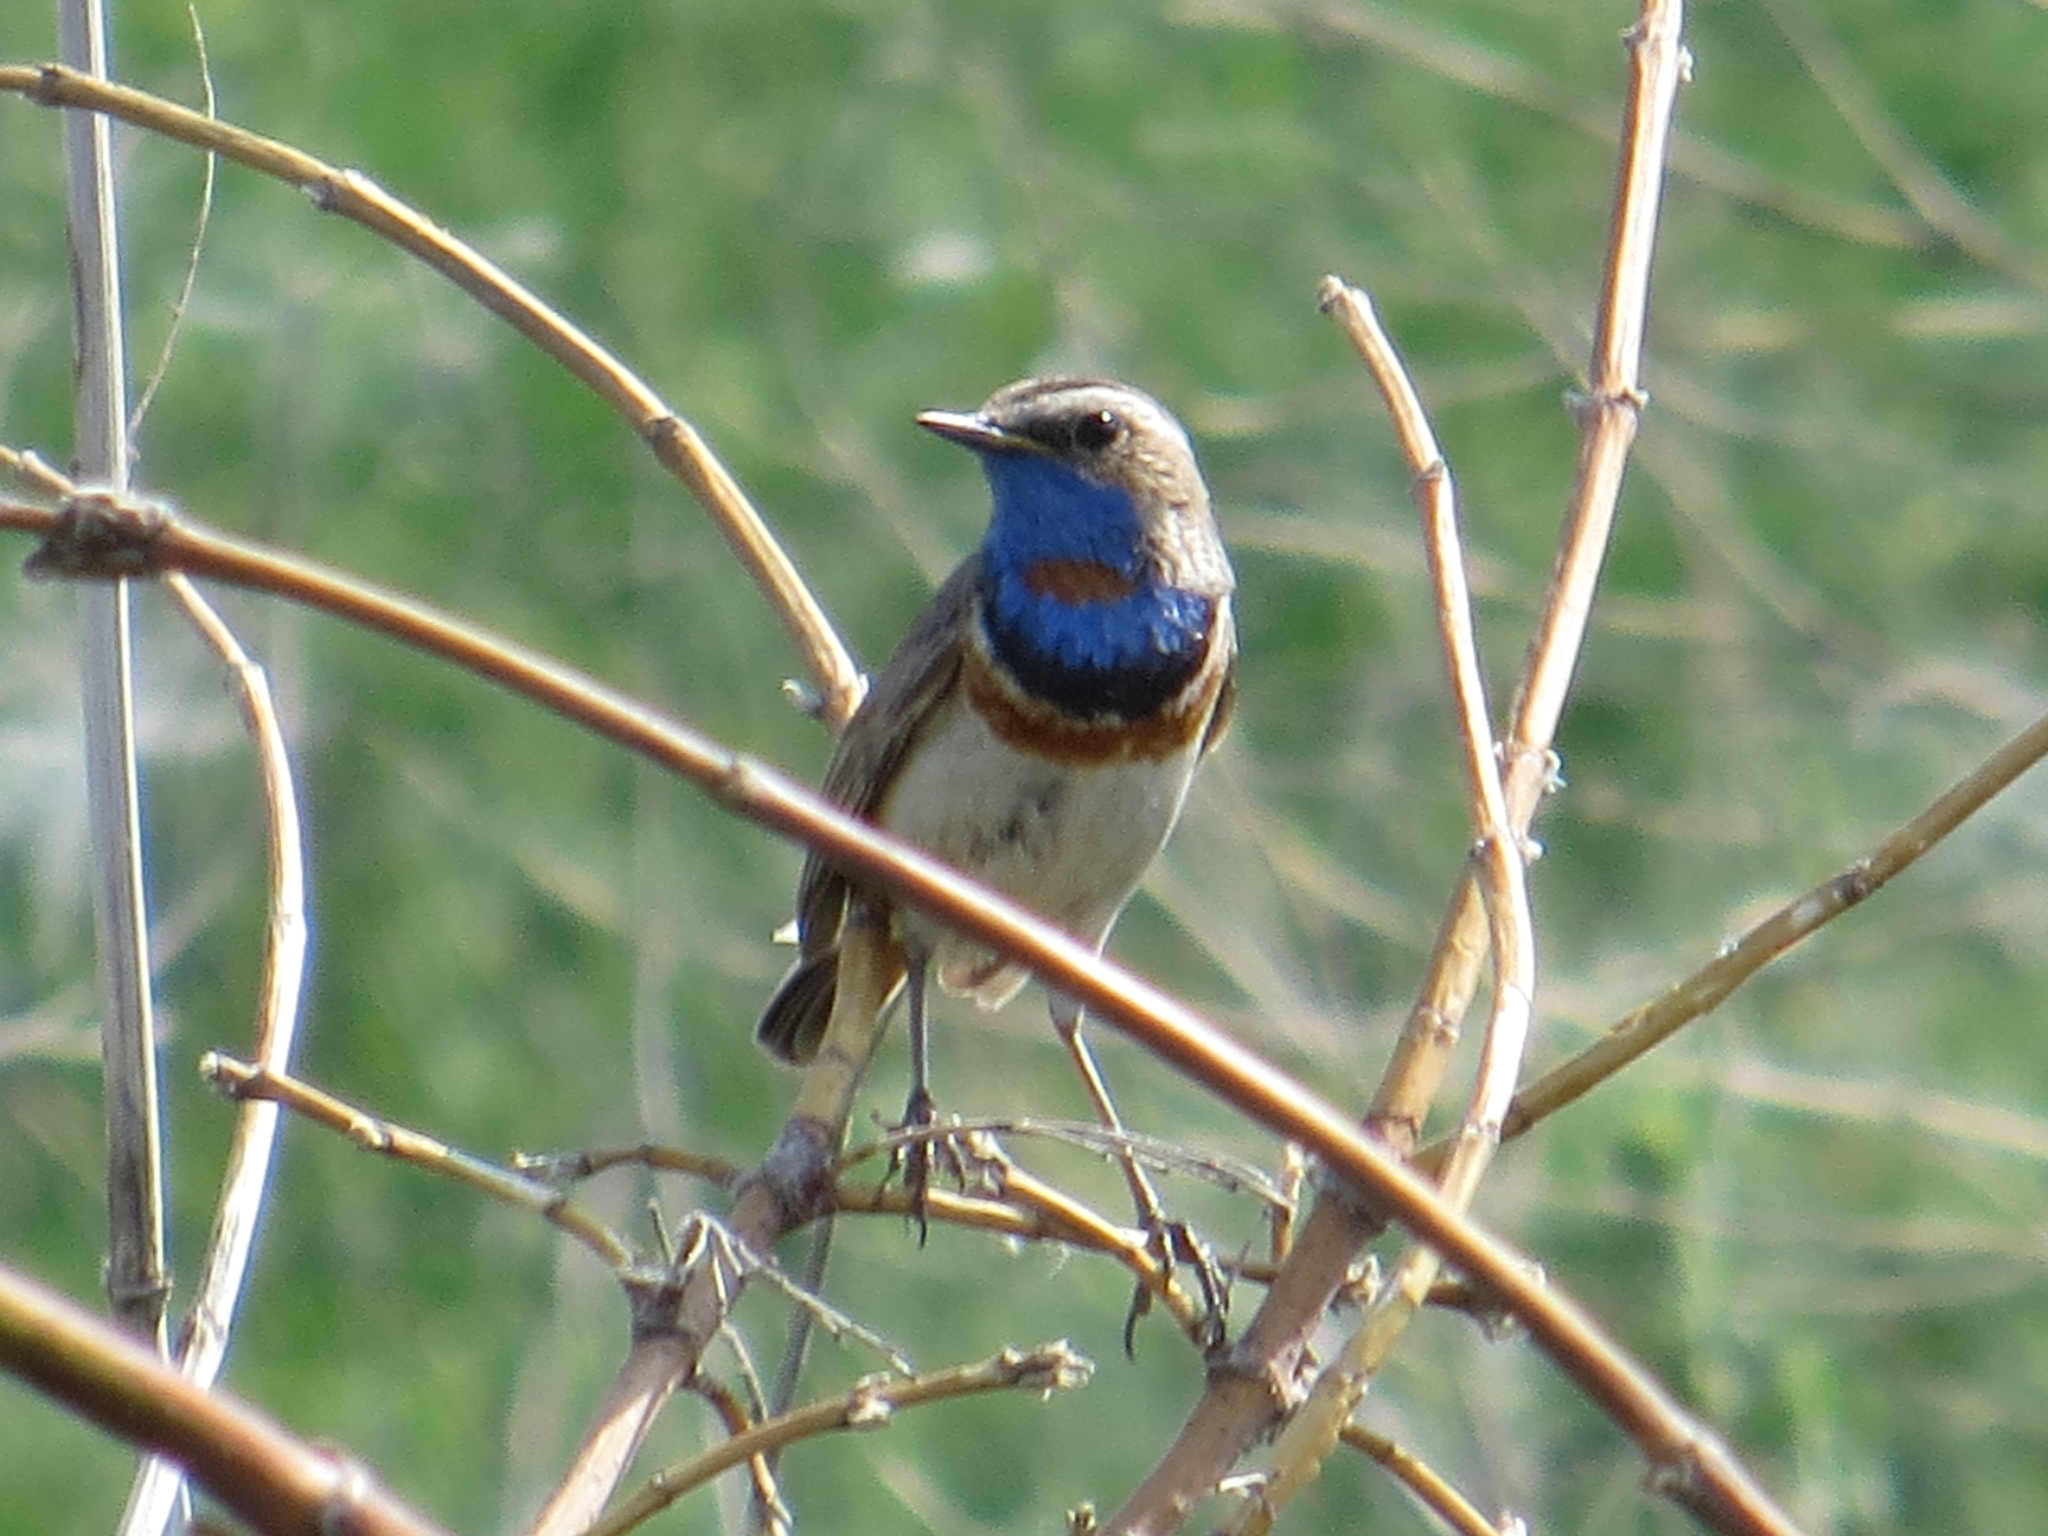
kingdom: Animalia
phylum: Chordata
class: Aves
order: Passeriformes
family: Muscicapidae
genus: Luscinia
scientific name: Luscinia svecica
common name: Bluethroat
